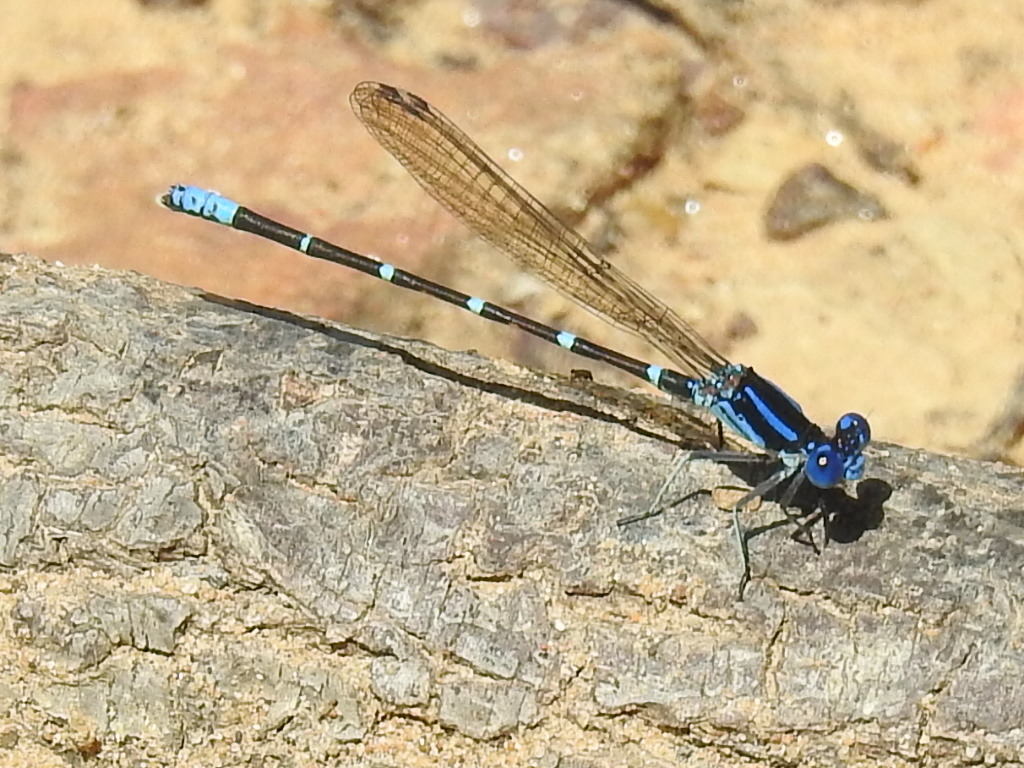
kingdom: Animalia
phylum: Arthropoda
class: Insecta
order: Odonata
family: Coenagrionidae
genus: Argia
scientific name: Argia sedula
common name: Blue-ringed dancer
